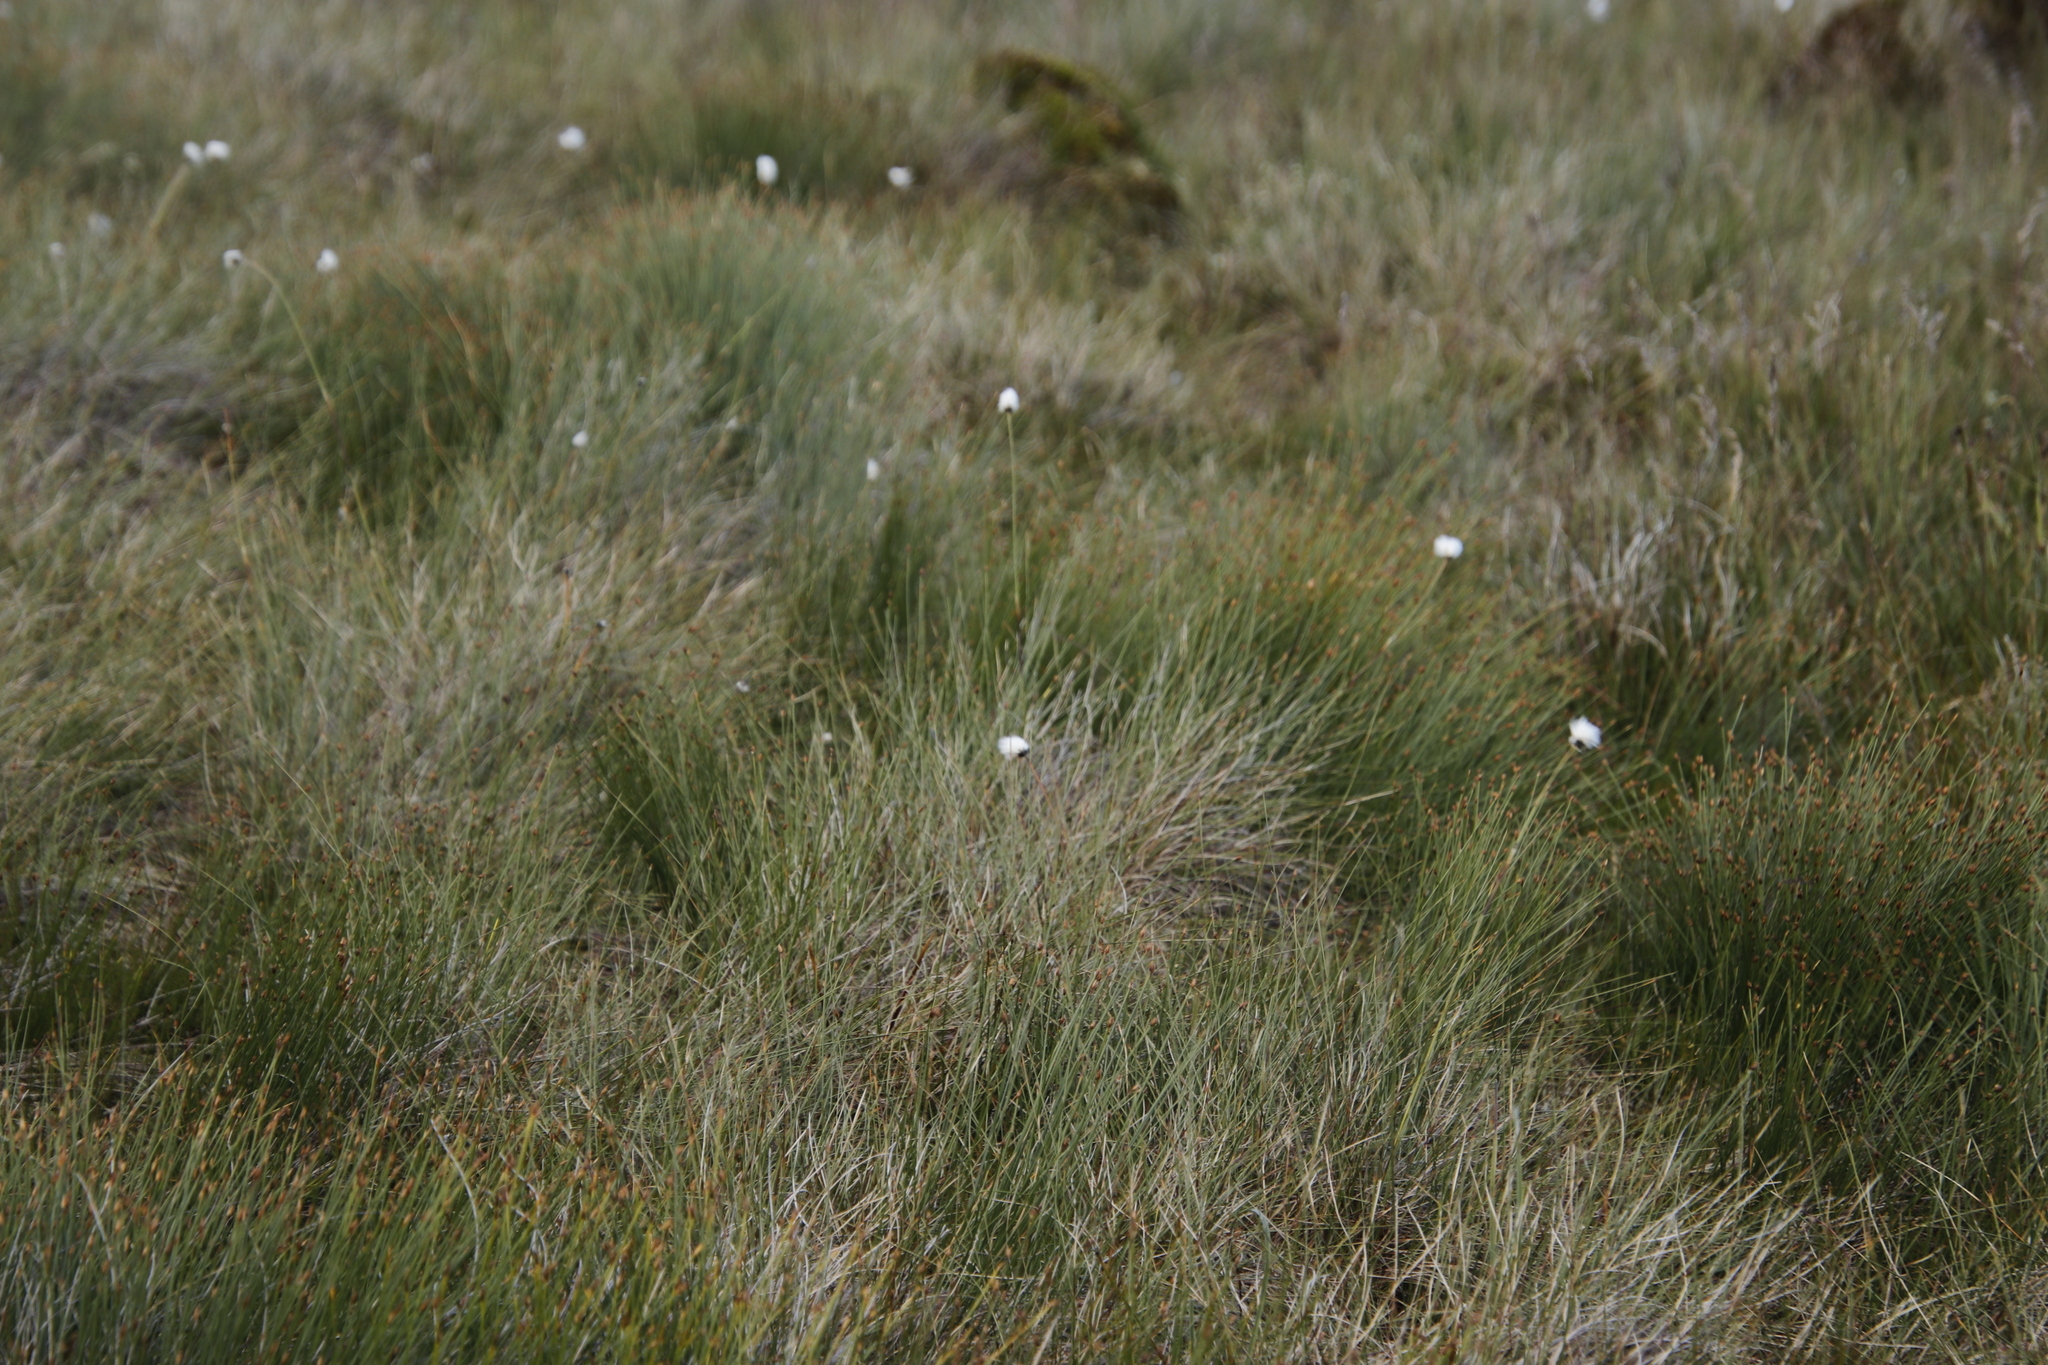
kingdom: Plantae
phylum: Tracheophyta
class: Liliopsida
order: Poales
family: Cyperaceae
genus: Eriophorum
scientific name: Eriophorum vaginatum
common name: Hare's-tail cottongrass
